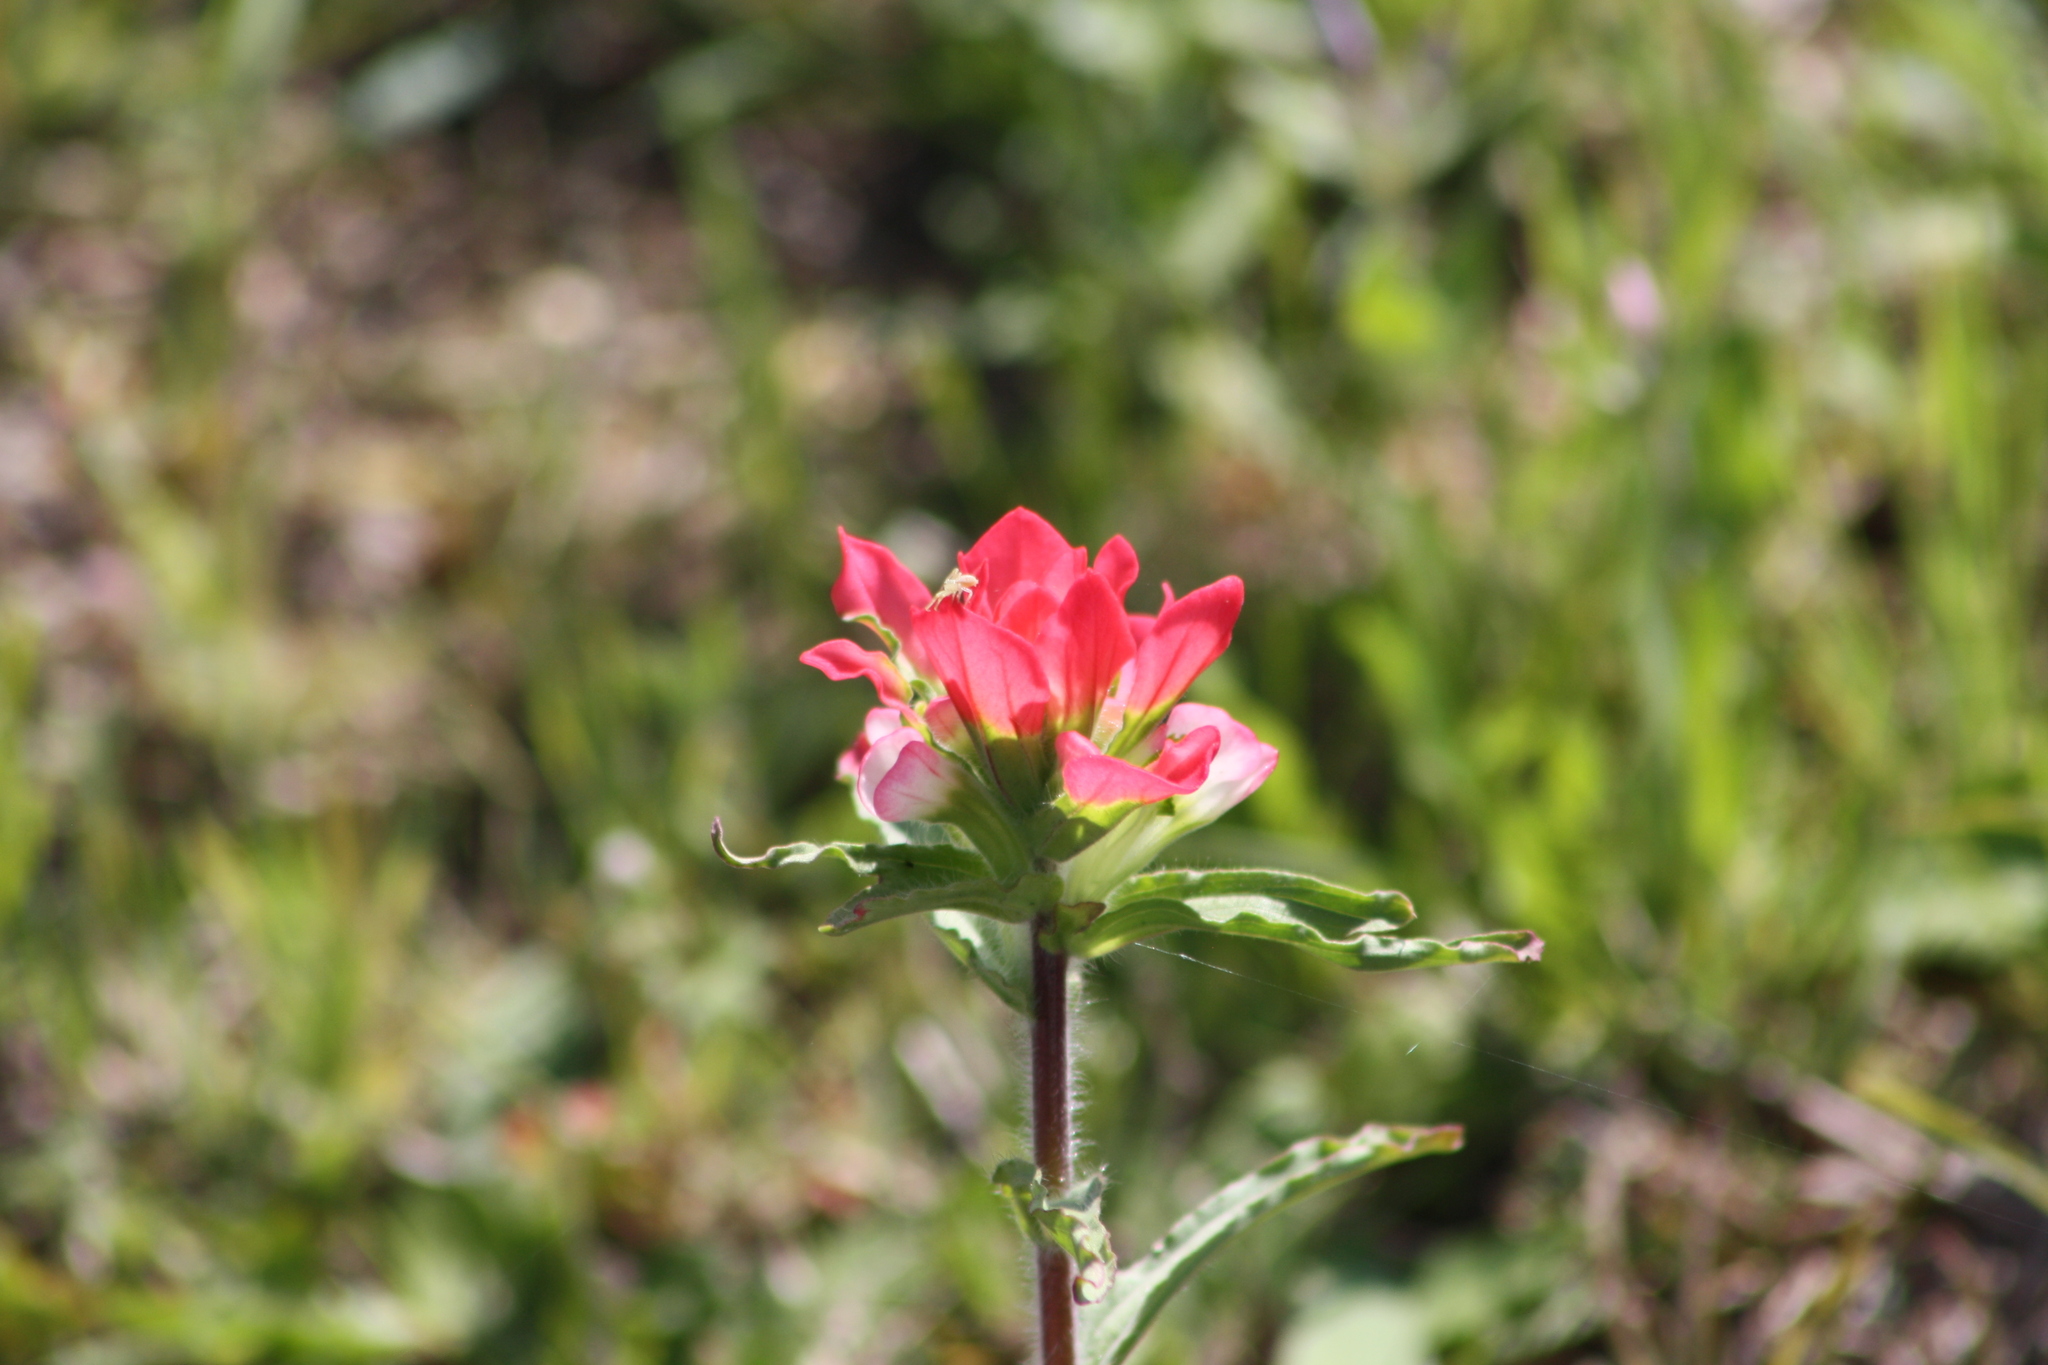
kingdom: Plantae
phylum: Tracheophyta
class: Magnoliopsida
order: Lamiales
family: Orobanchaceae
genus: Castilleja
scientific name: Castilleja indivisa
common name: Texas paintbrush
